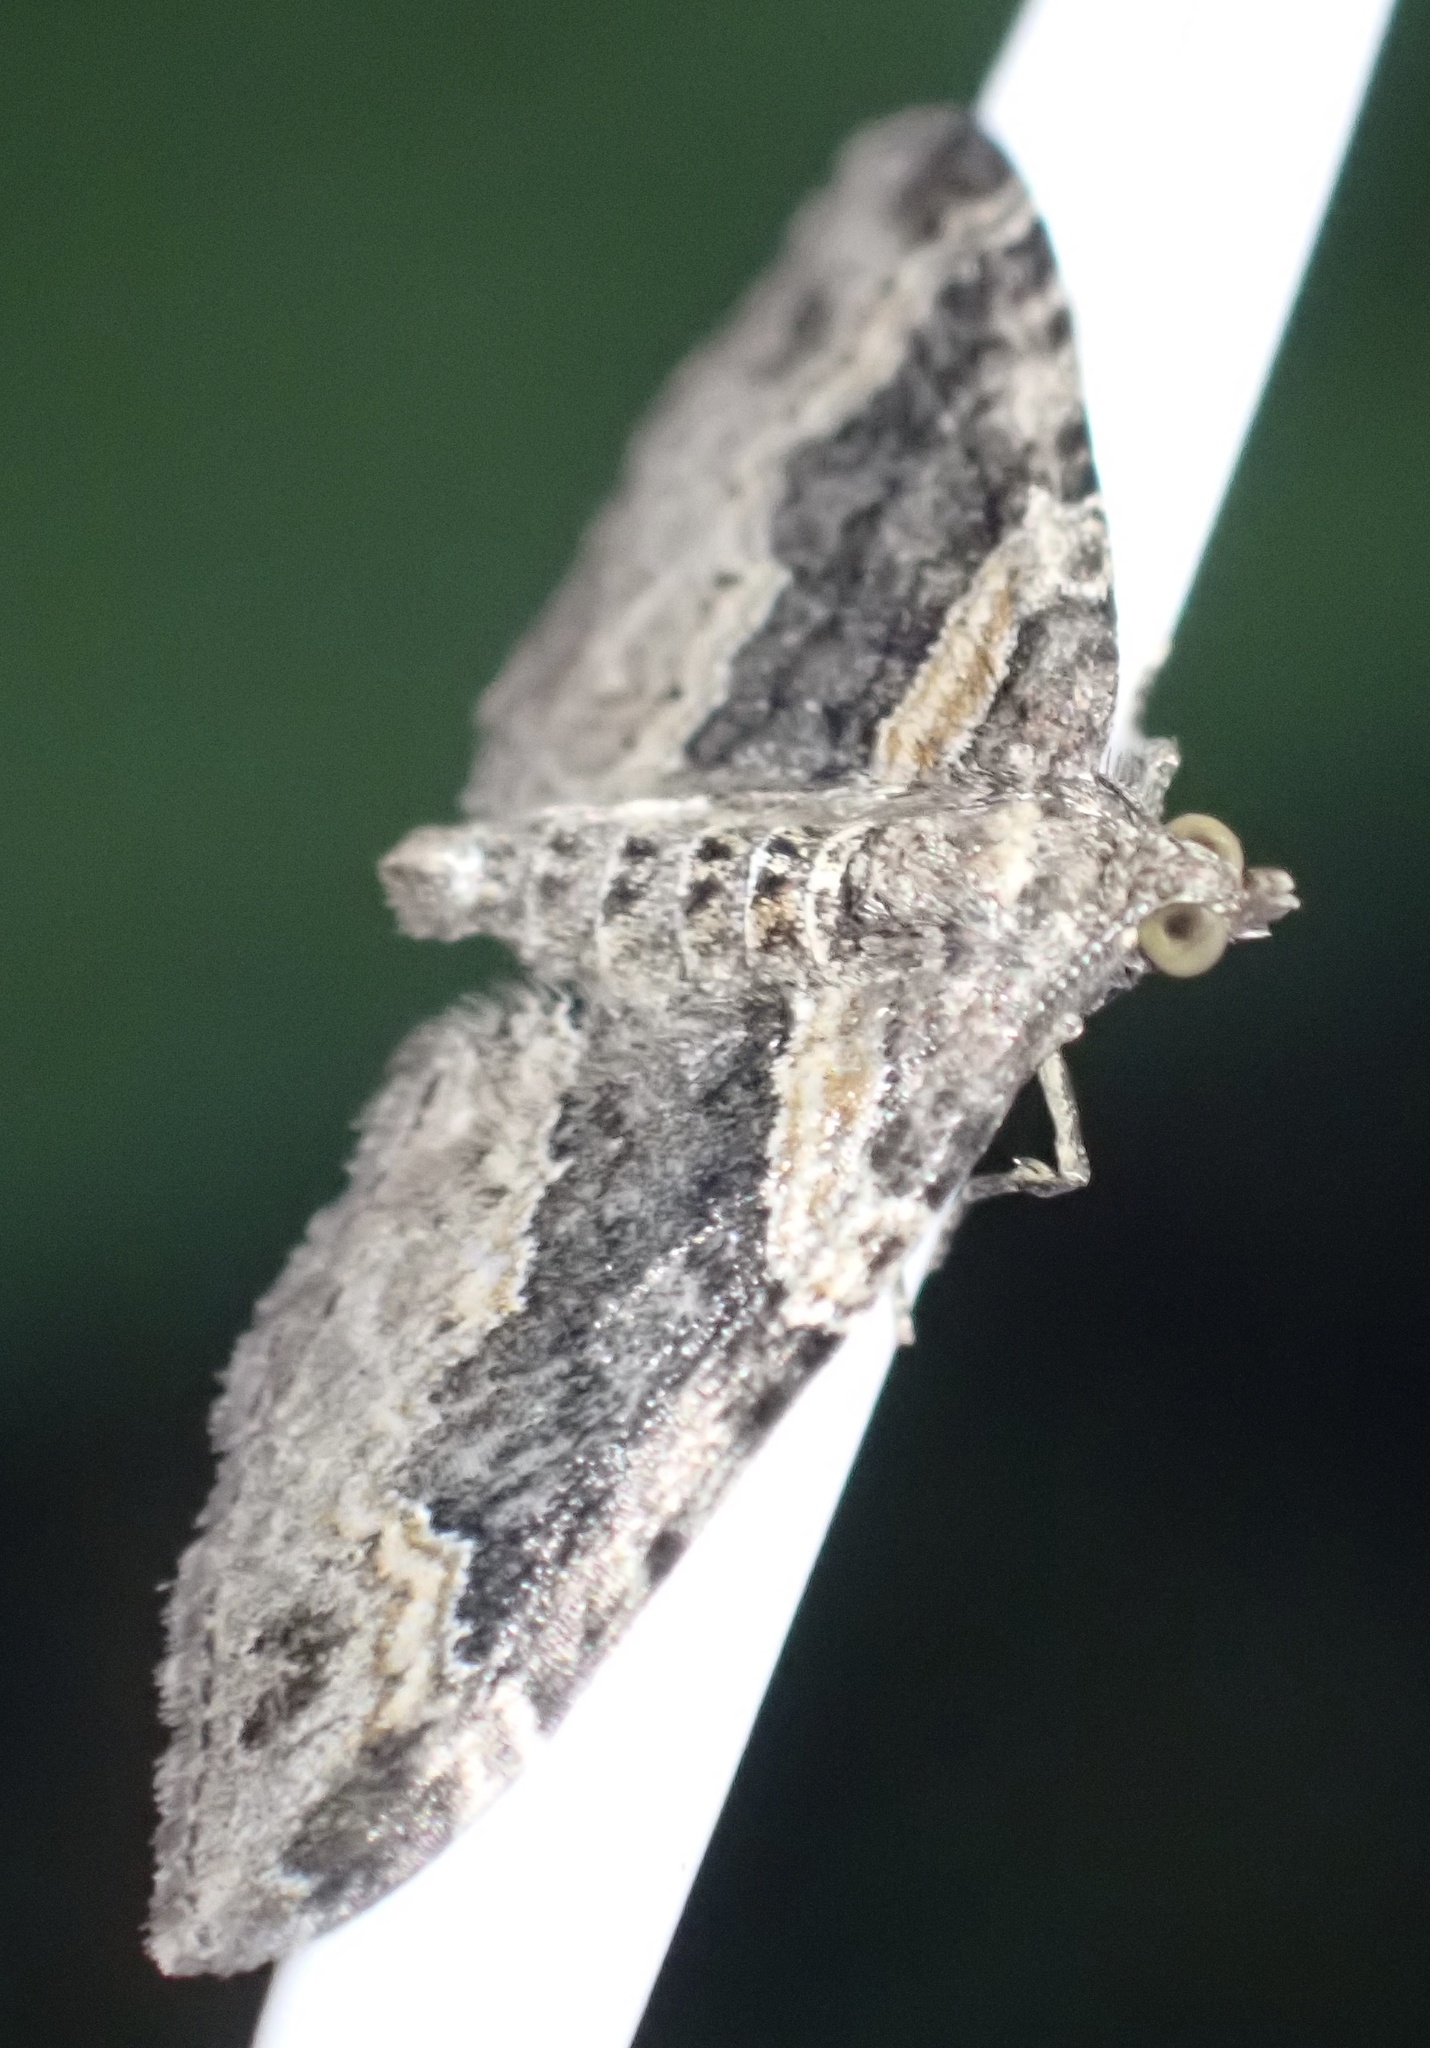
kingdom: Animalia
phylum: Arthropoda
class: Insecta
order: Lepidoptera
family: Geometridae
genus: Xanthorhoe
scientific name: Xanthorhoe ferrugata
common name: Dark-barred twin-spot carpet
